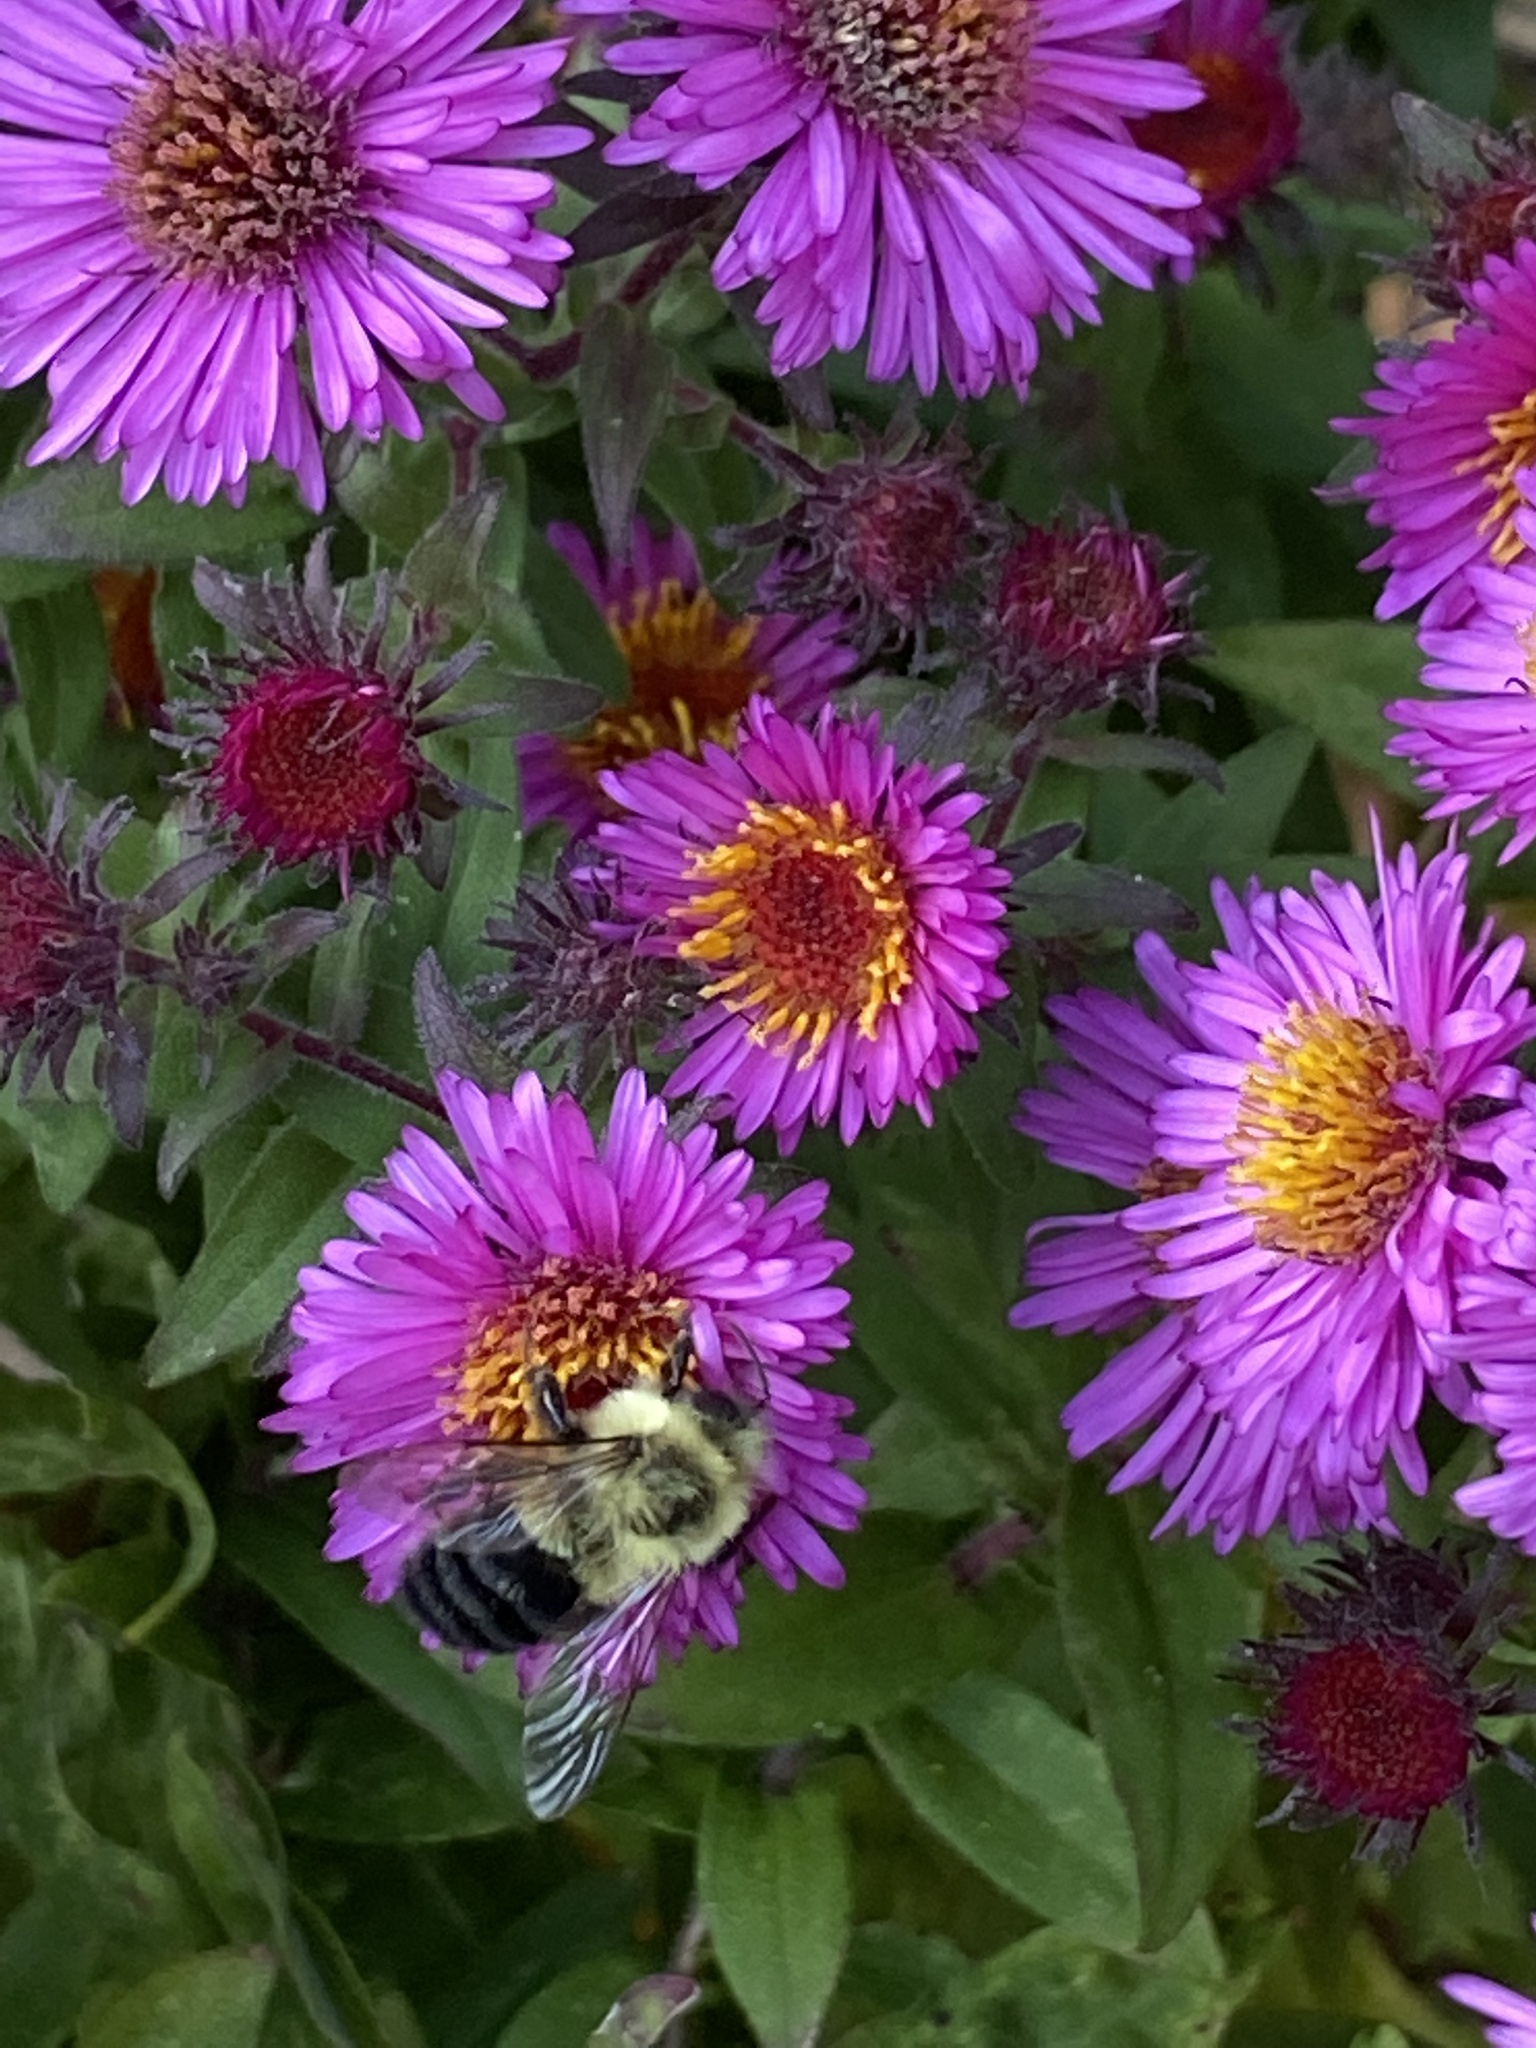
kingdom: Animalia
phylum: Arthropoda
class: Insecta
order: Hymenoptera
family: Apidae
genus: Bombus
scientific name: Bombus impatiens
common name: Common eastern bumble bee
